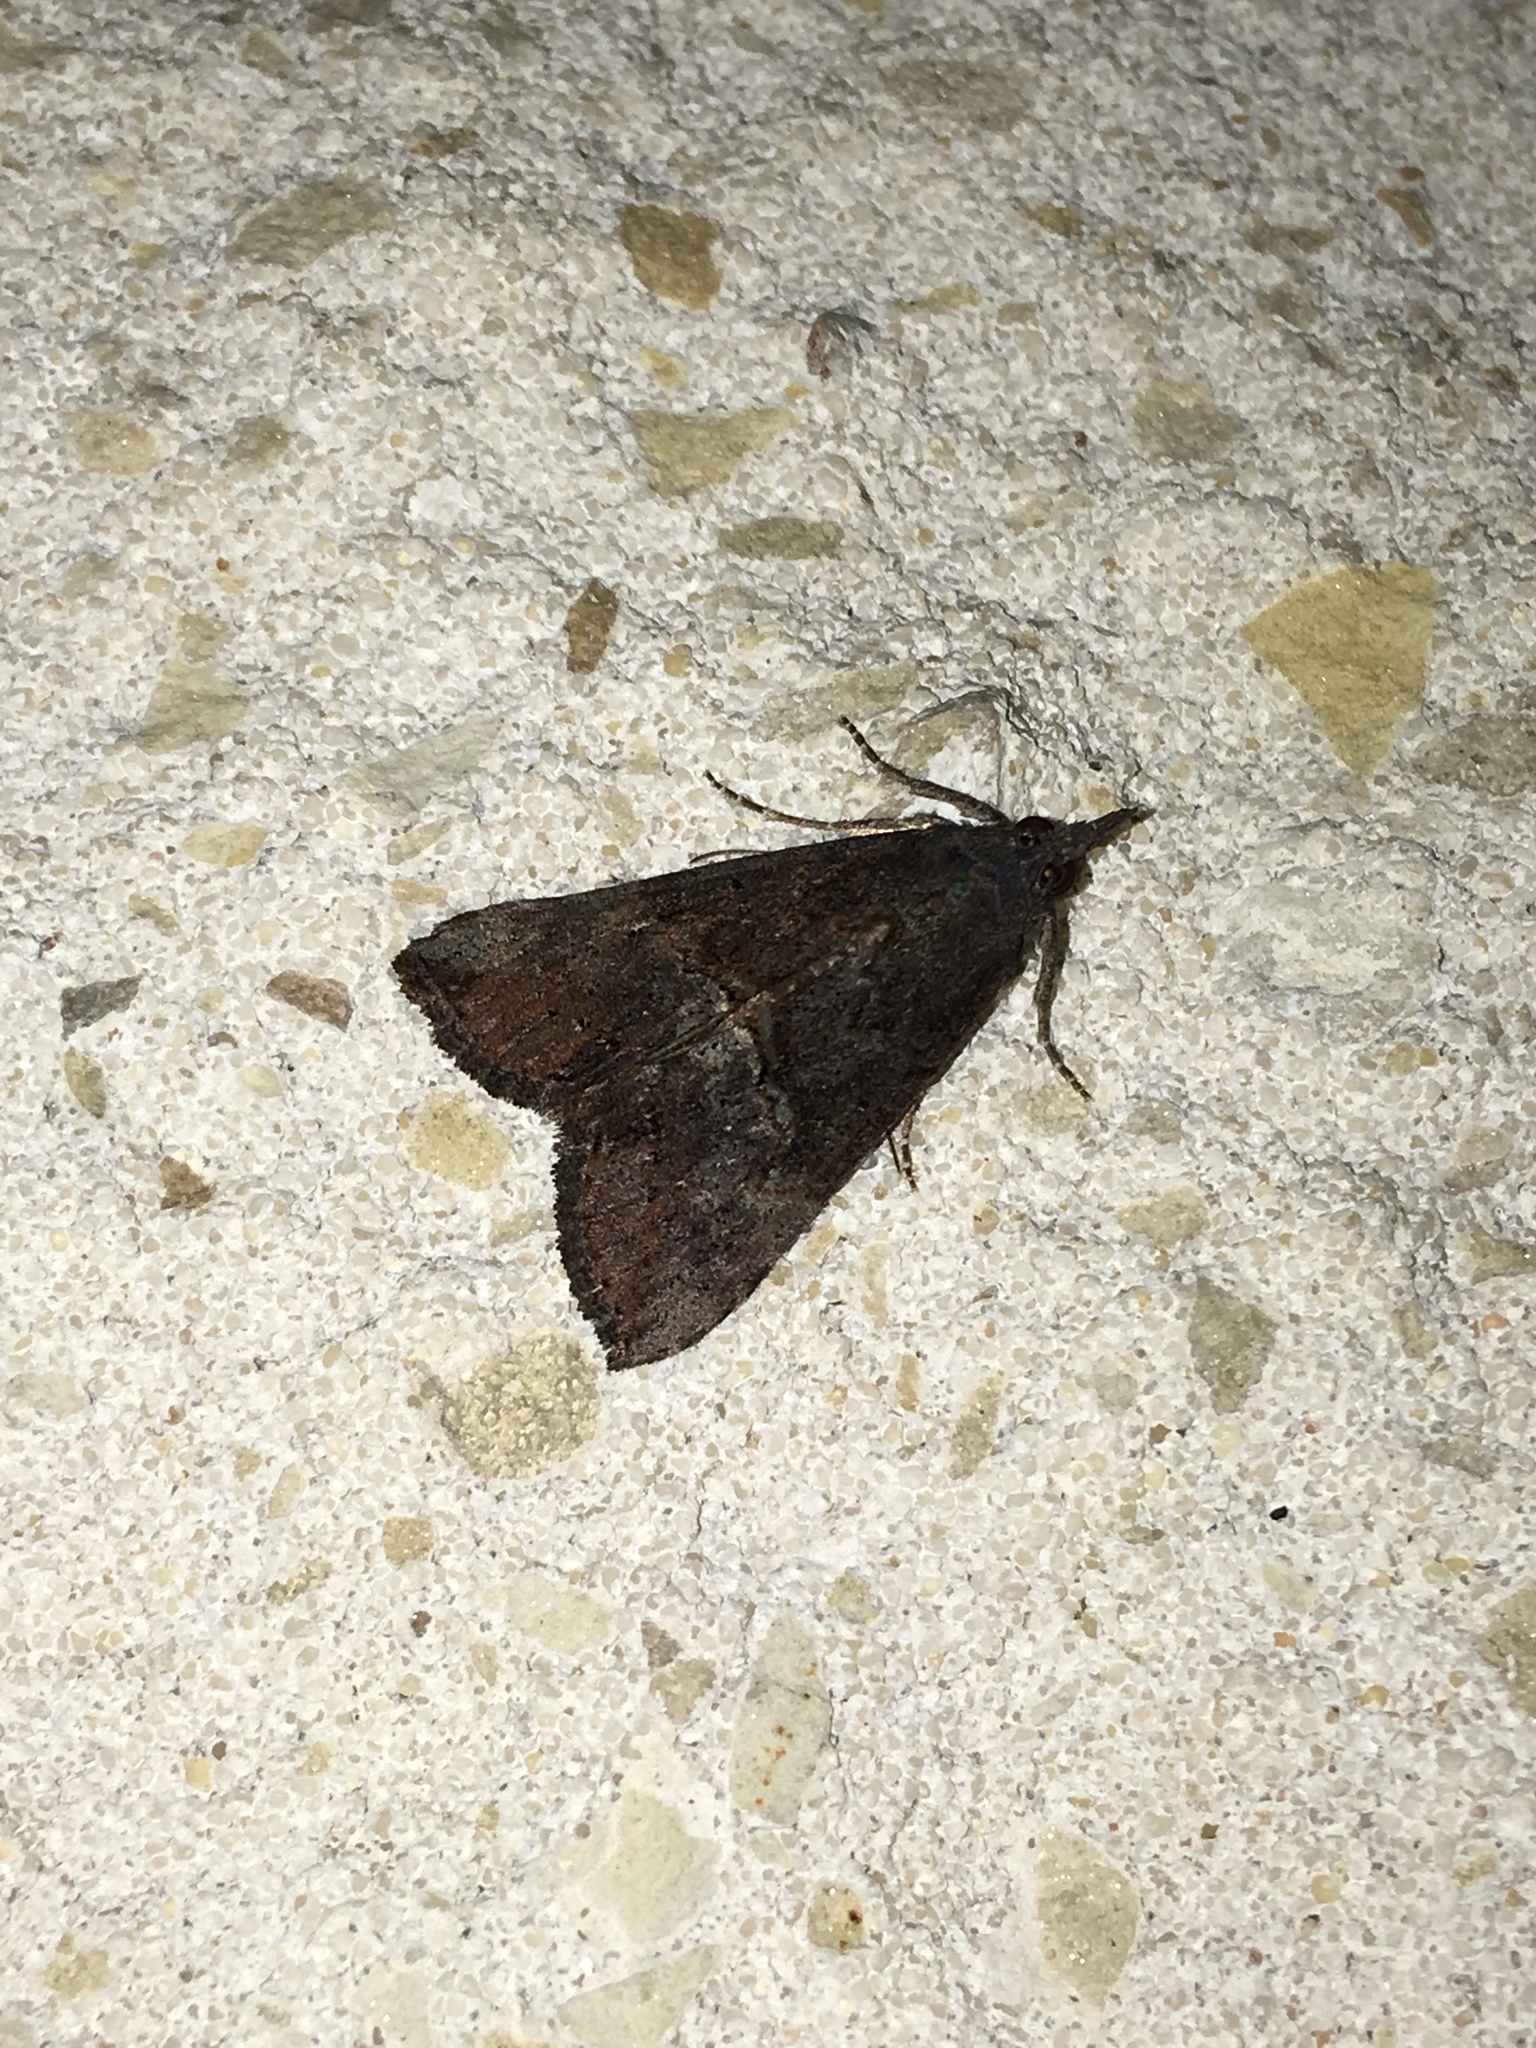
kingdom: Animalia
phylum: Arthropoda
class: Insecta
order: Lepidoptera
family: Erebidae
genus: Hypena
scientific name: Hypena scabra
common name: Green cloverworm
